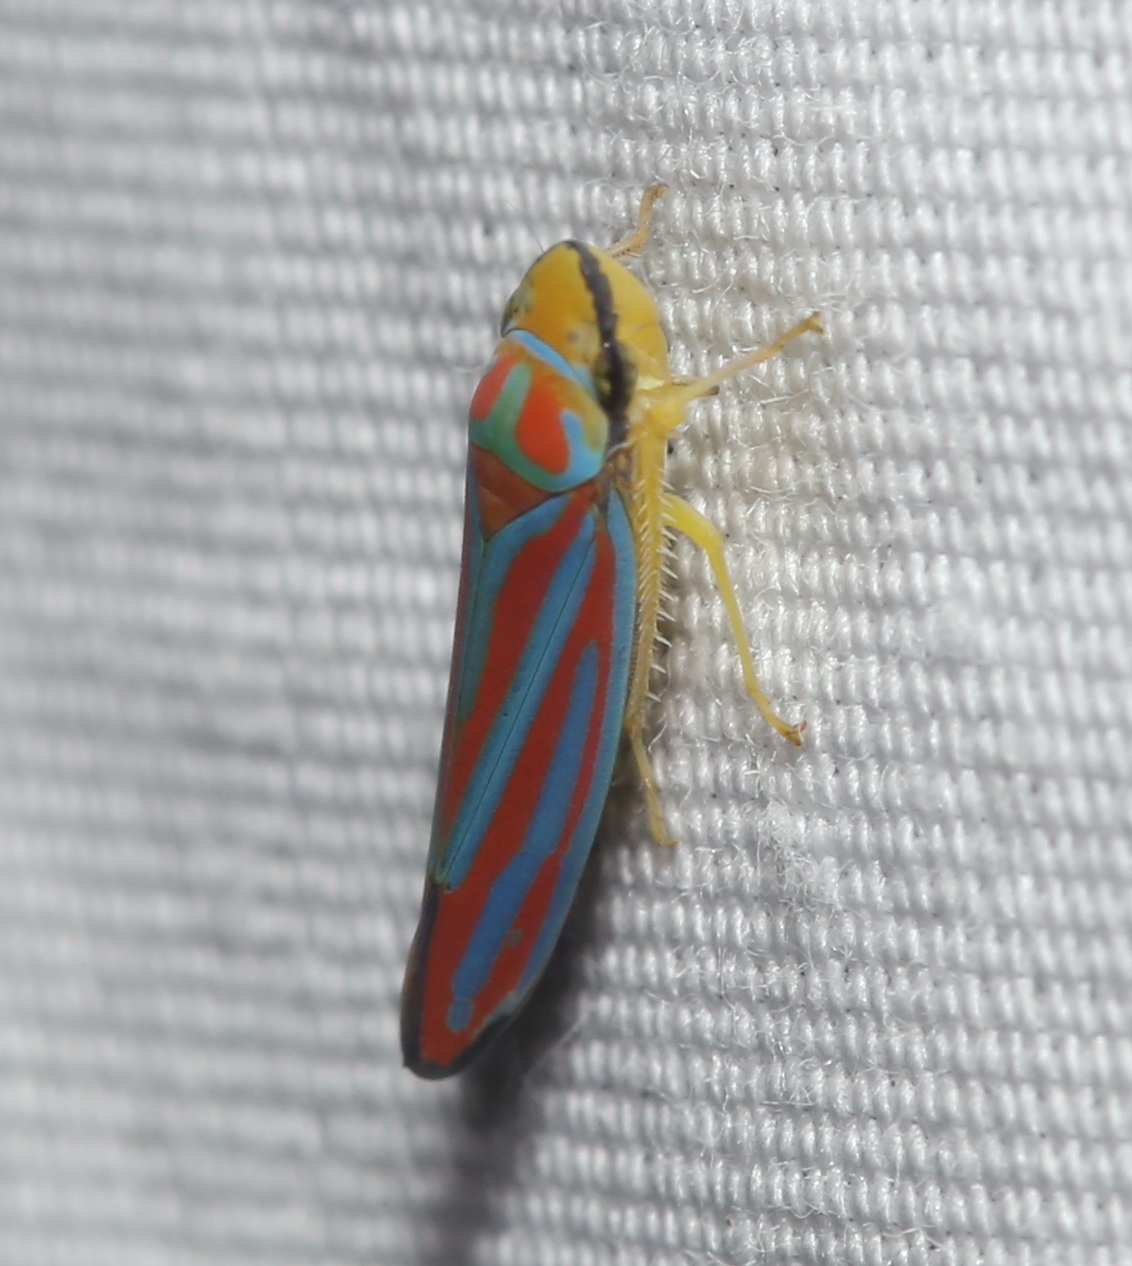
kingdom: Animalia
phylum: Arthropoda
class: Insecta
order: Hemiptera
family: Cicadellidae
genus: Graphocephala
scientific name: Graphocephala coccinea
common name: Candy-striped leafhopper
